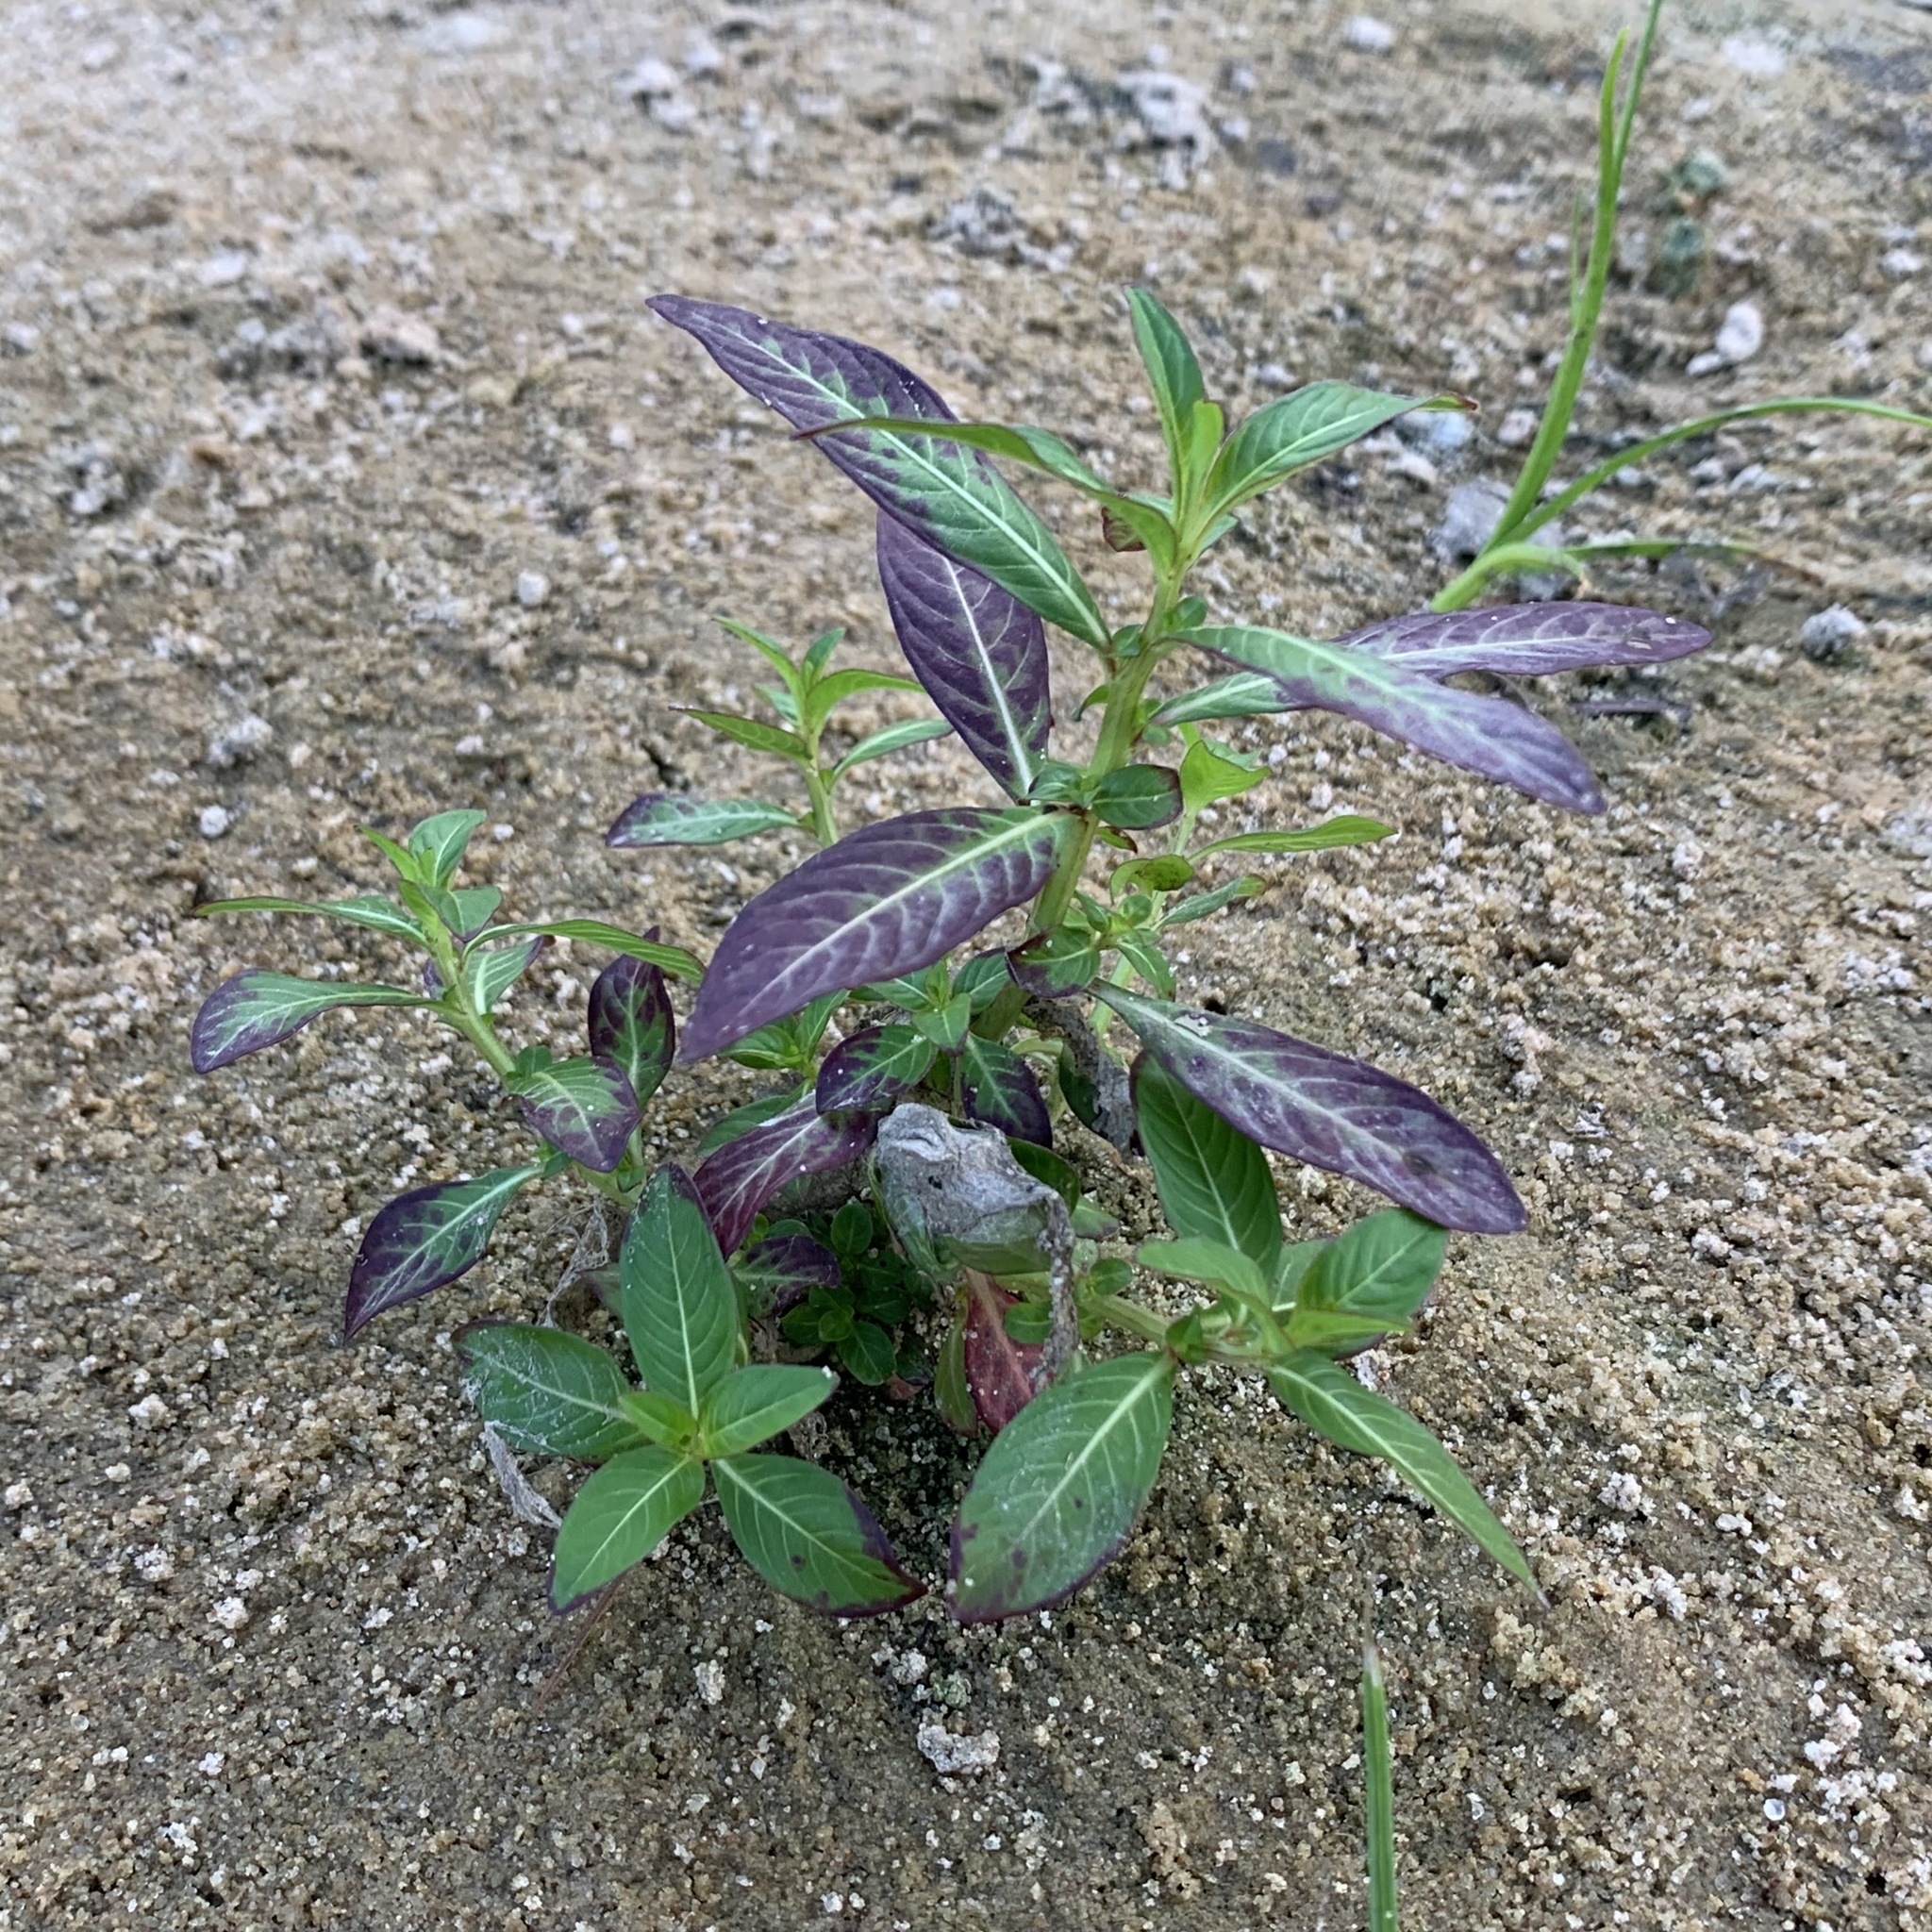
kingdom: Plantae
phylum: Tracheophyta
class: Magnoliopsida
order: Myrtales
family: Onagraceae
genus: Ludwigia
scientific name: Ludwigia octovalvis
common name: Water-primrose
